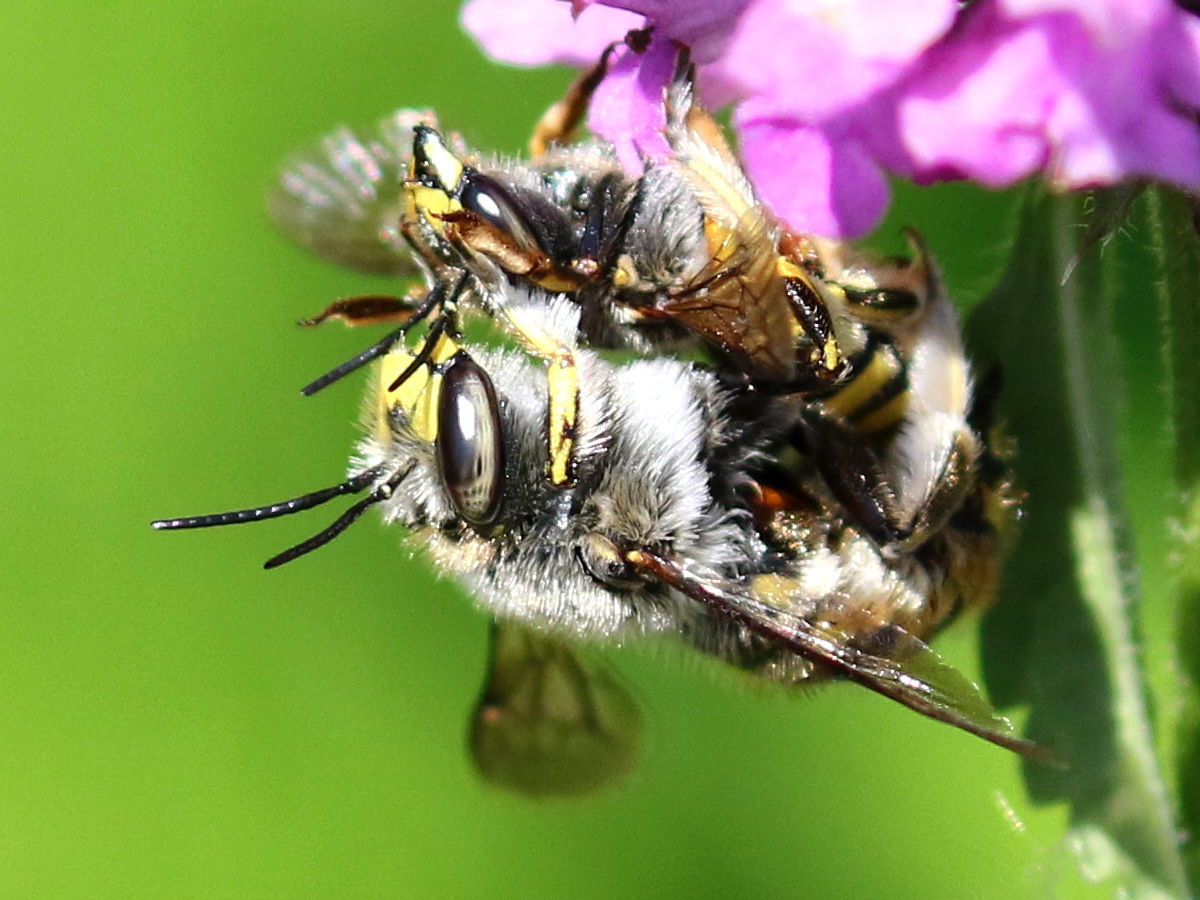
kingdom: Animalia
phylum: Arthropoda
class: Insecta
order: Hymenoptera
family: Megachilidae
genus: Anthidium
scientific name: Anthidium manicatum
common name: Wool carder bee
